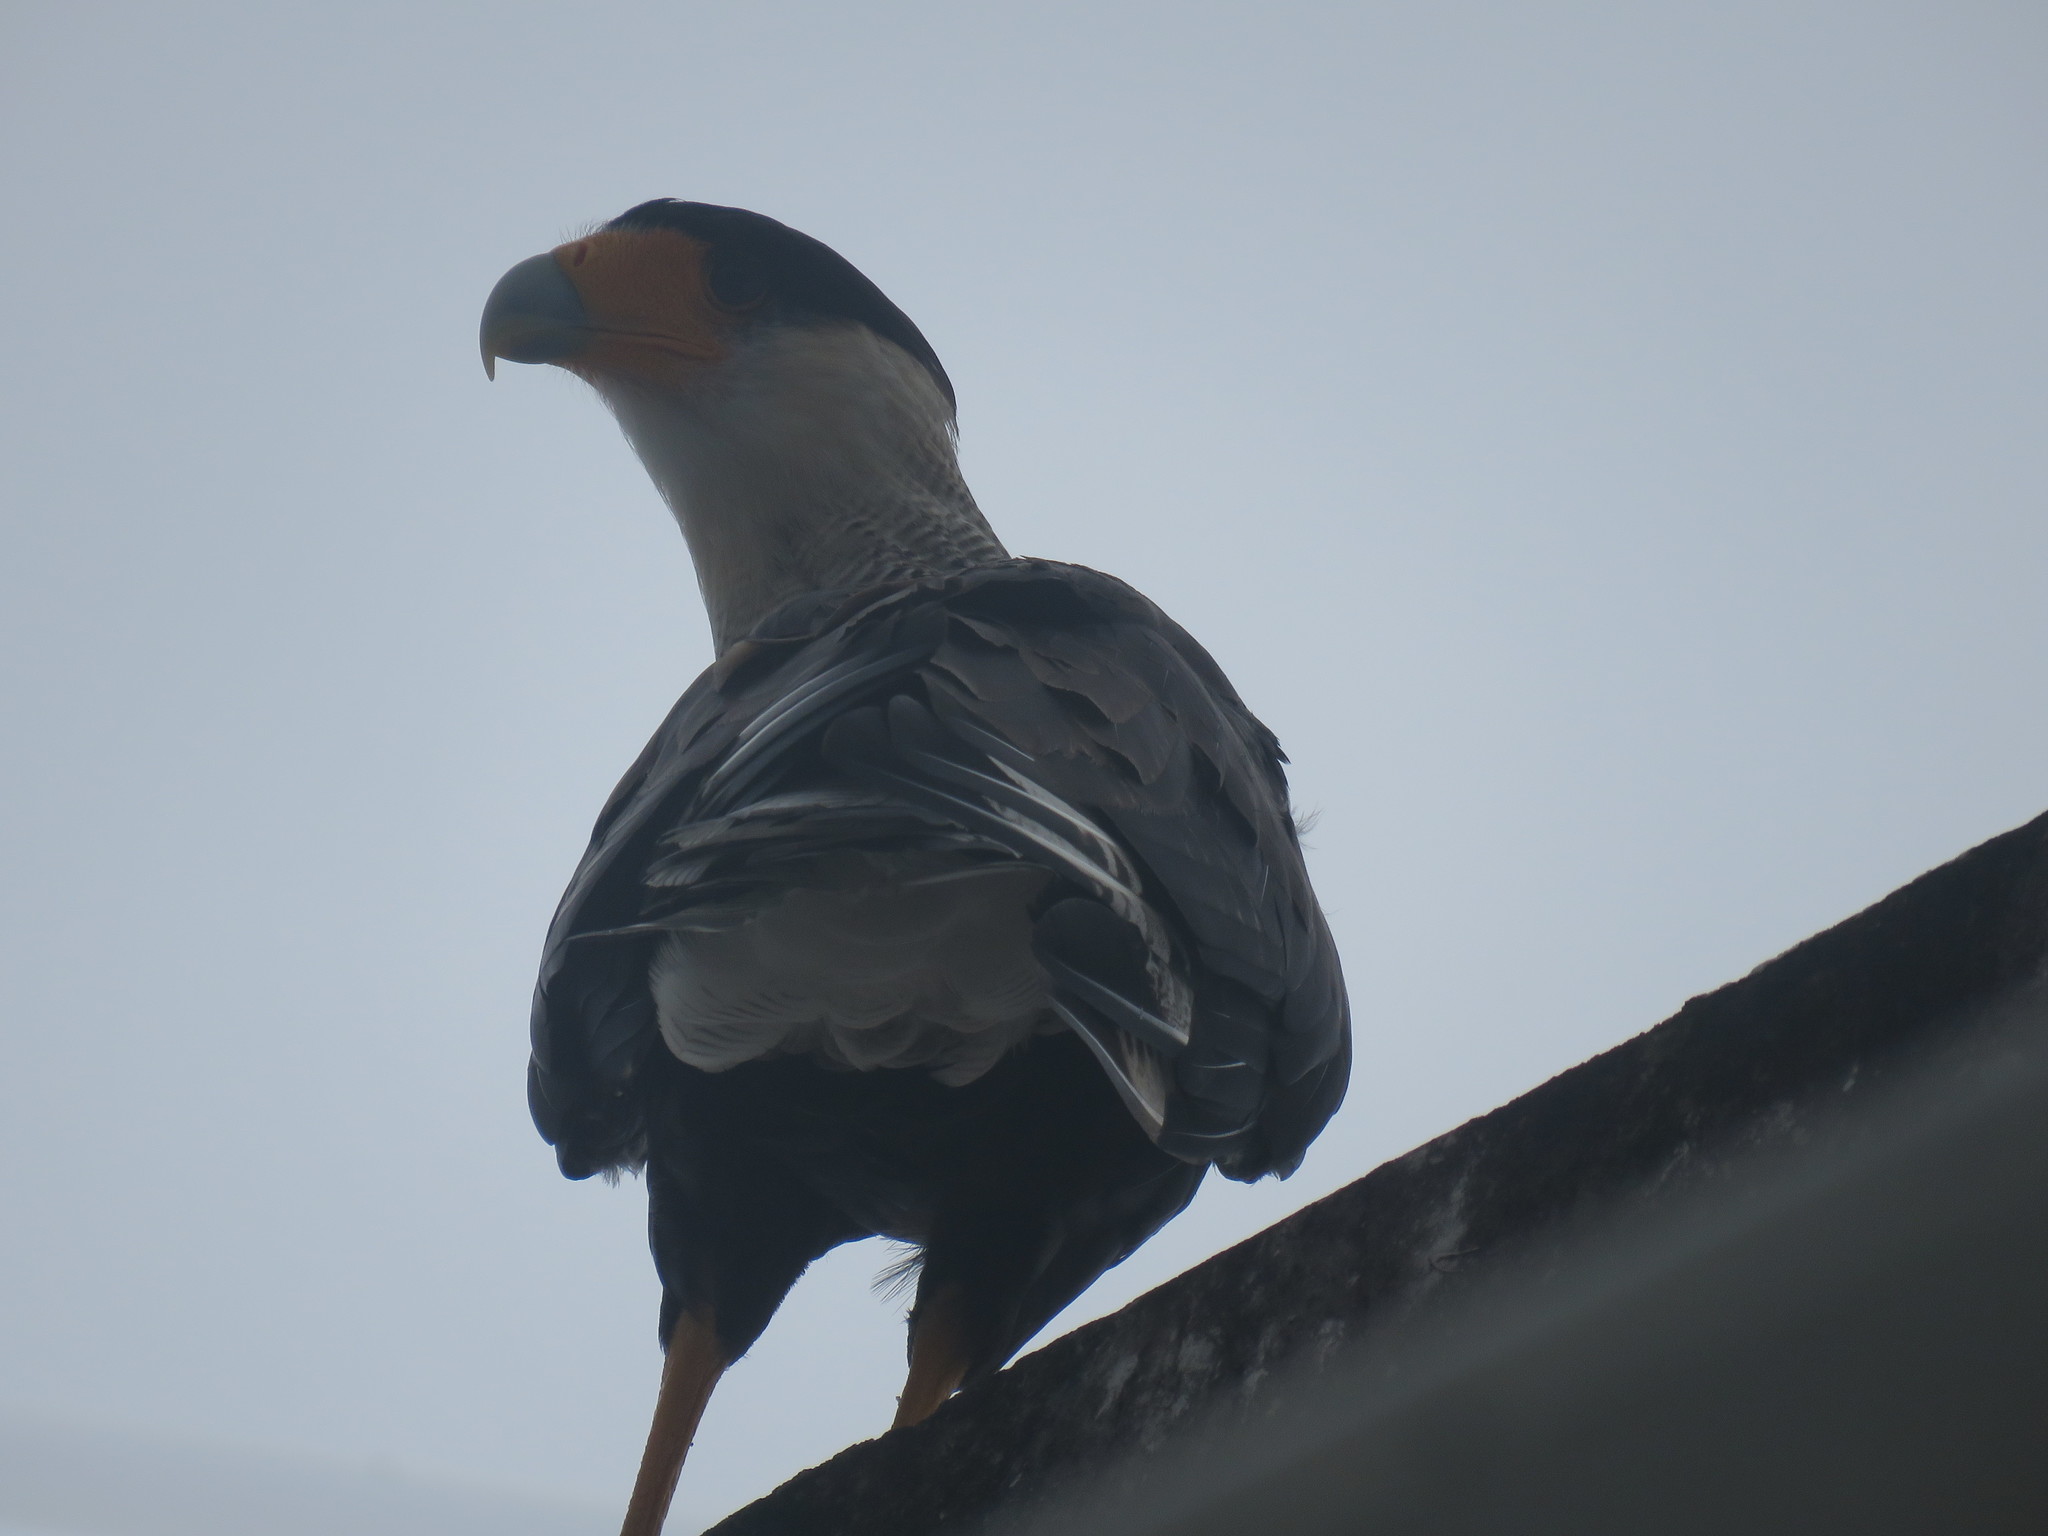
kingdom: Animalia
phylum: Chordata
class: Aves
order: Falconiformes
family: Falconidae
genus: Caracara
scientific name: Caracara plancus
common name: Southern caracara
